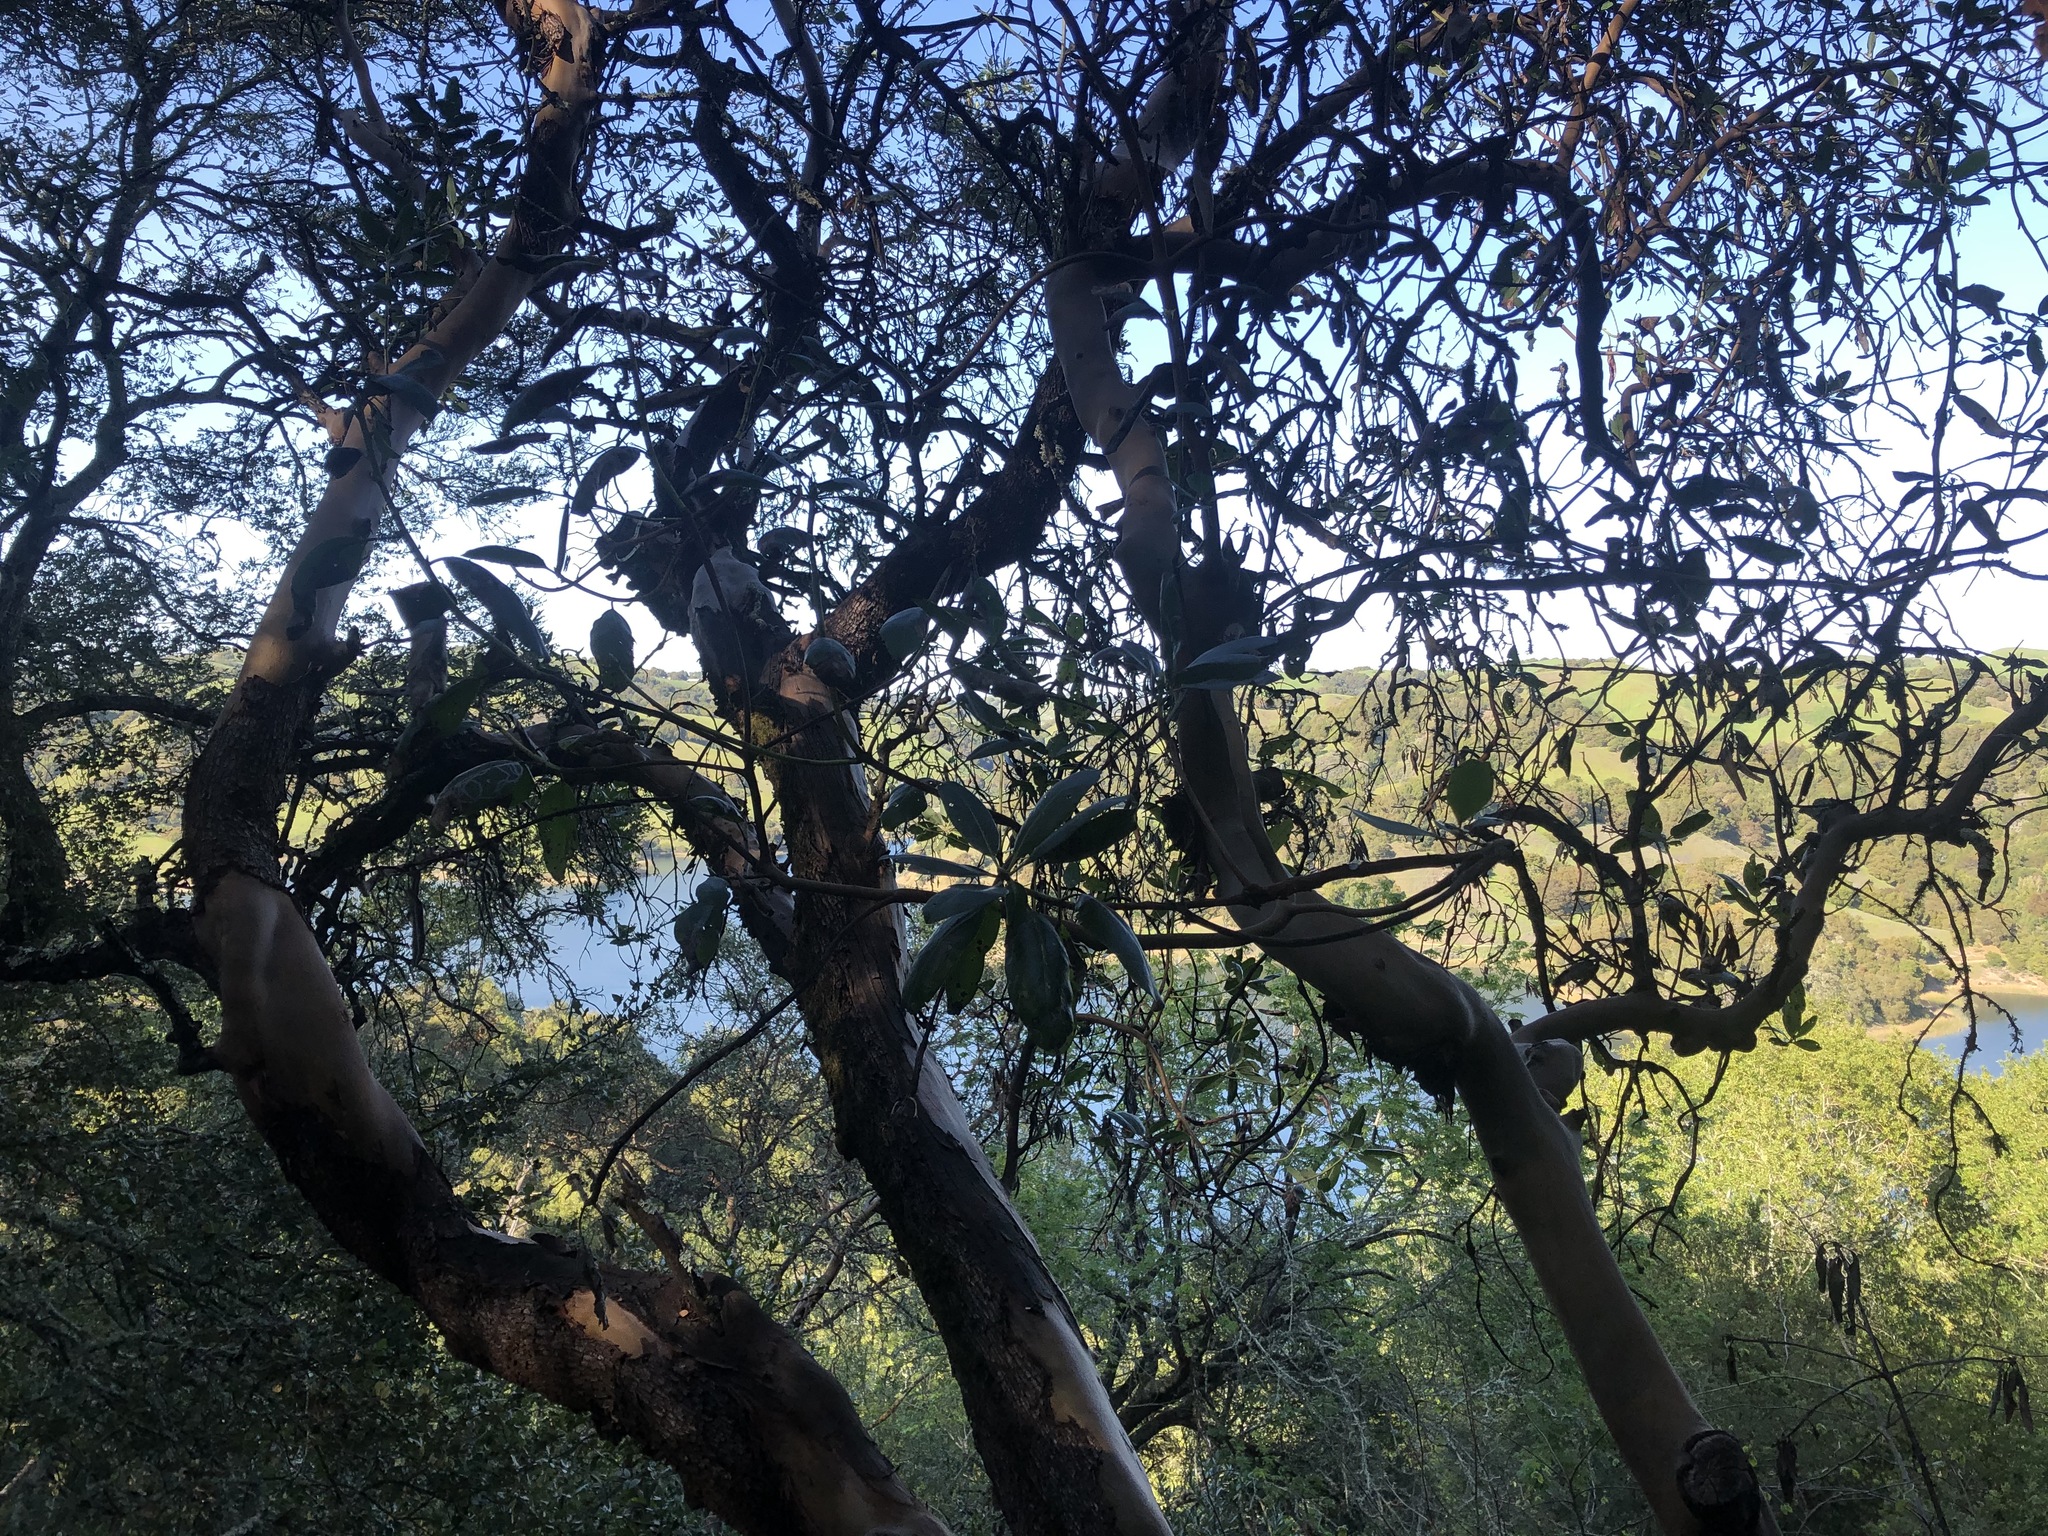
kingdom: Plantae
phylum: Tracheophyta
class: Magnoliopsida
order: Ericales
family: Ericaceae
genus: Arbutus
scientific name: Arbutus menziesii
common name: Pacific madrone
